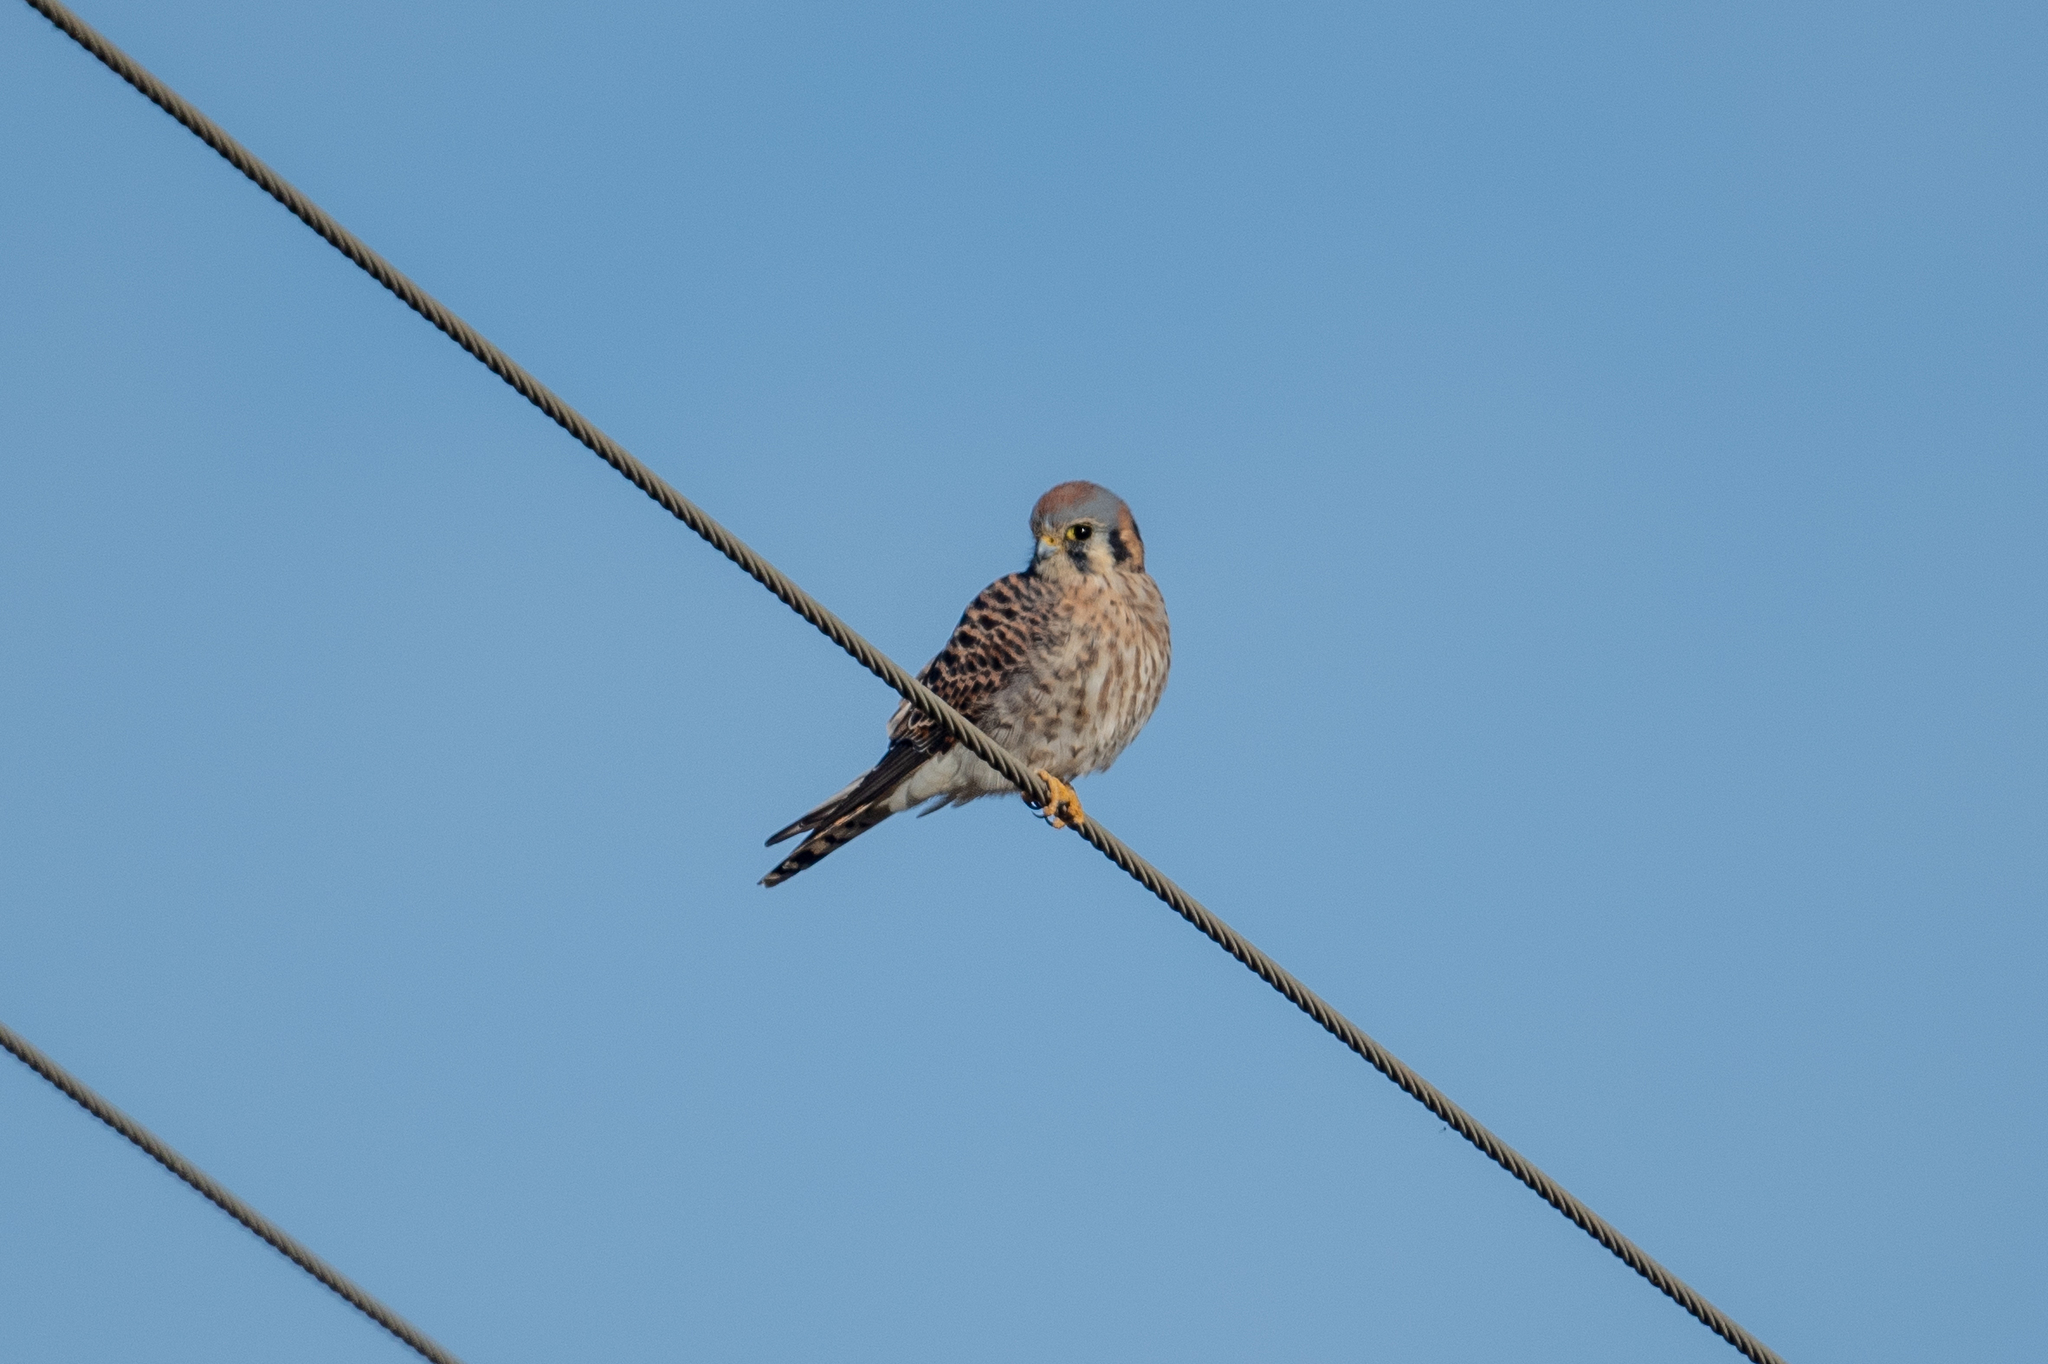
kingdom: Animalia
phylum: Chordata
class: Aves
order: Falconiformes
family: Falconidae
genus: Falco
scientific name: Falco sparverius
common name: American kestrel
